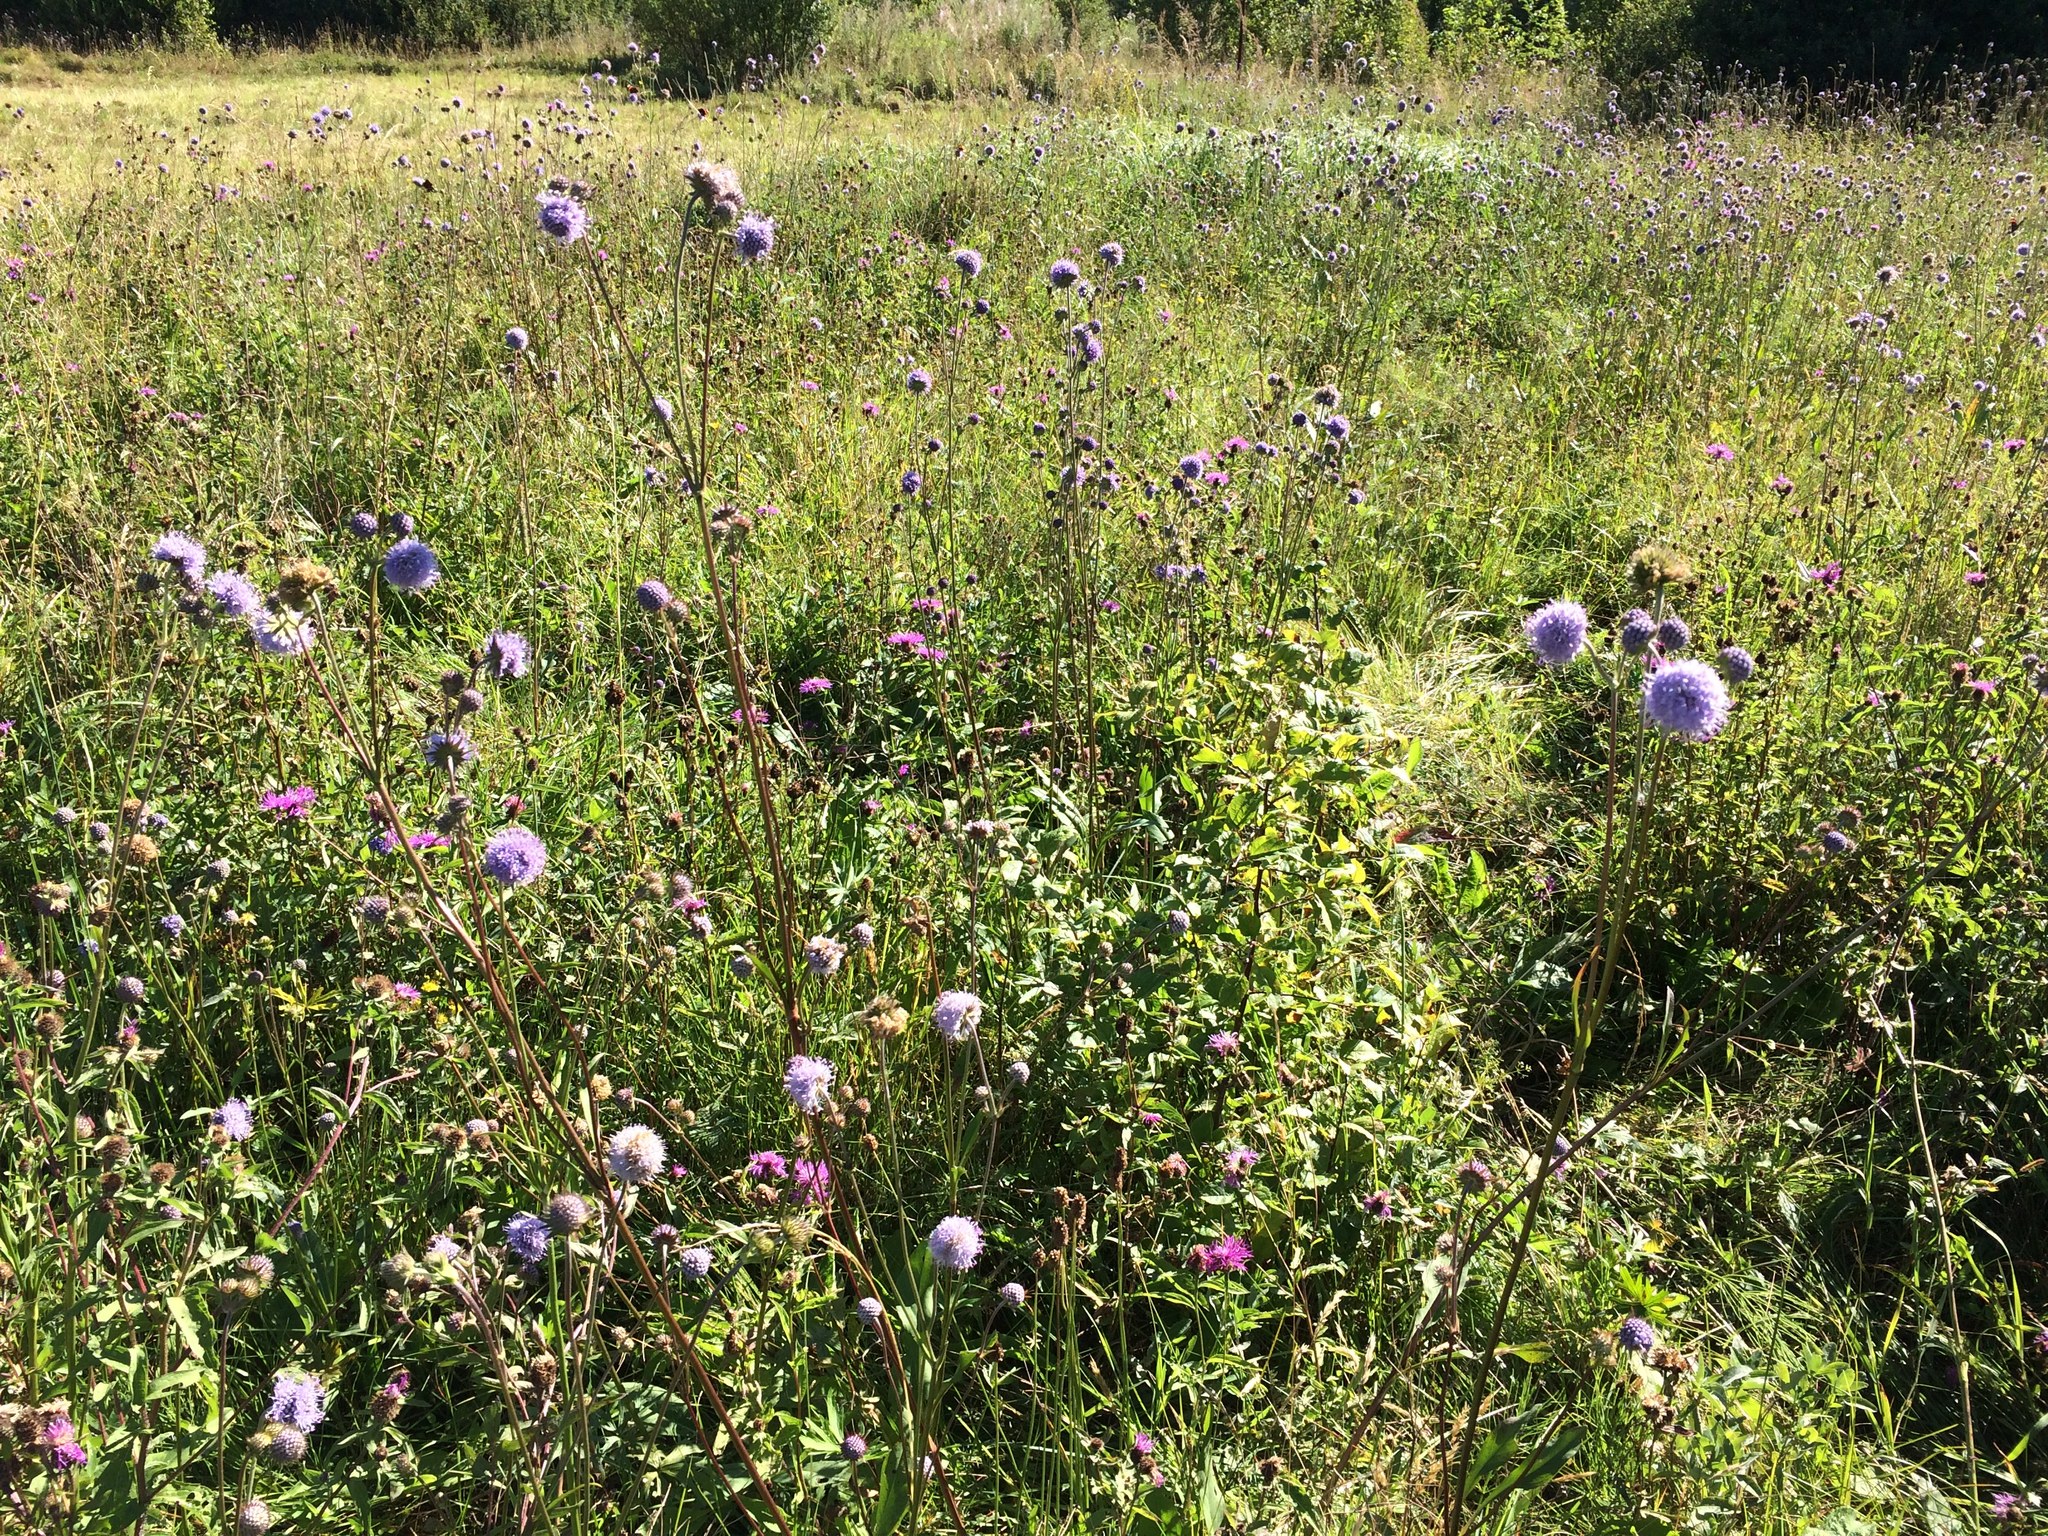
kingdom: Plantae
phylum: Tracheophyta
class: Magnoliopsida
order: Dipsacales
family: Caprifoliaceae
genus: Succisa
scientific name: Succisa pratensis
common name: Devil's-bit
